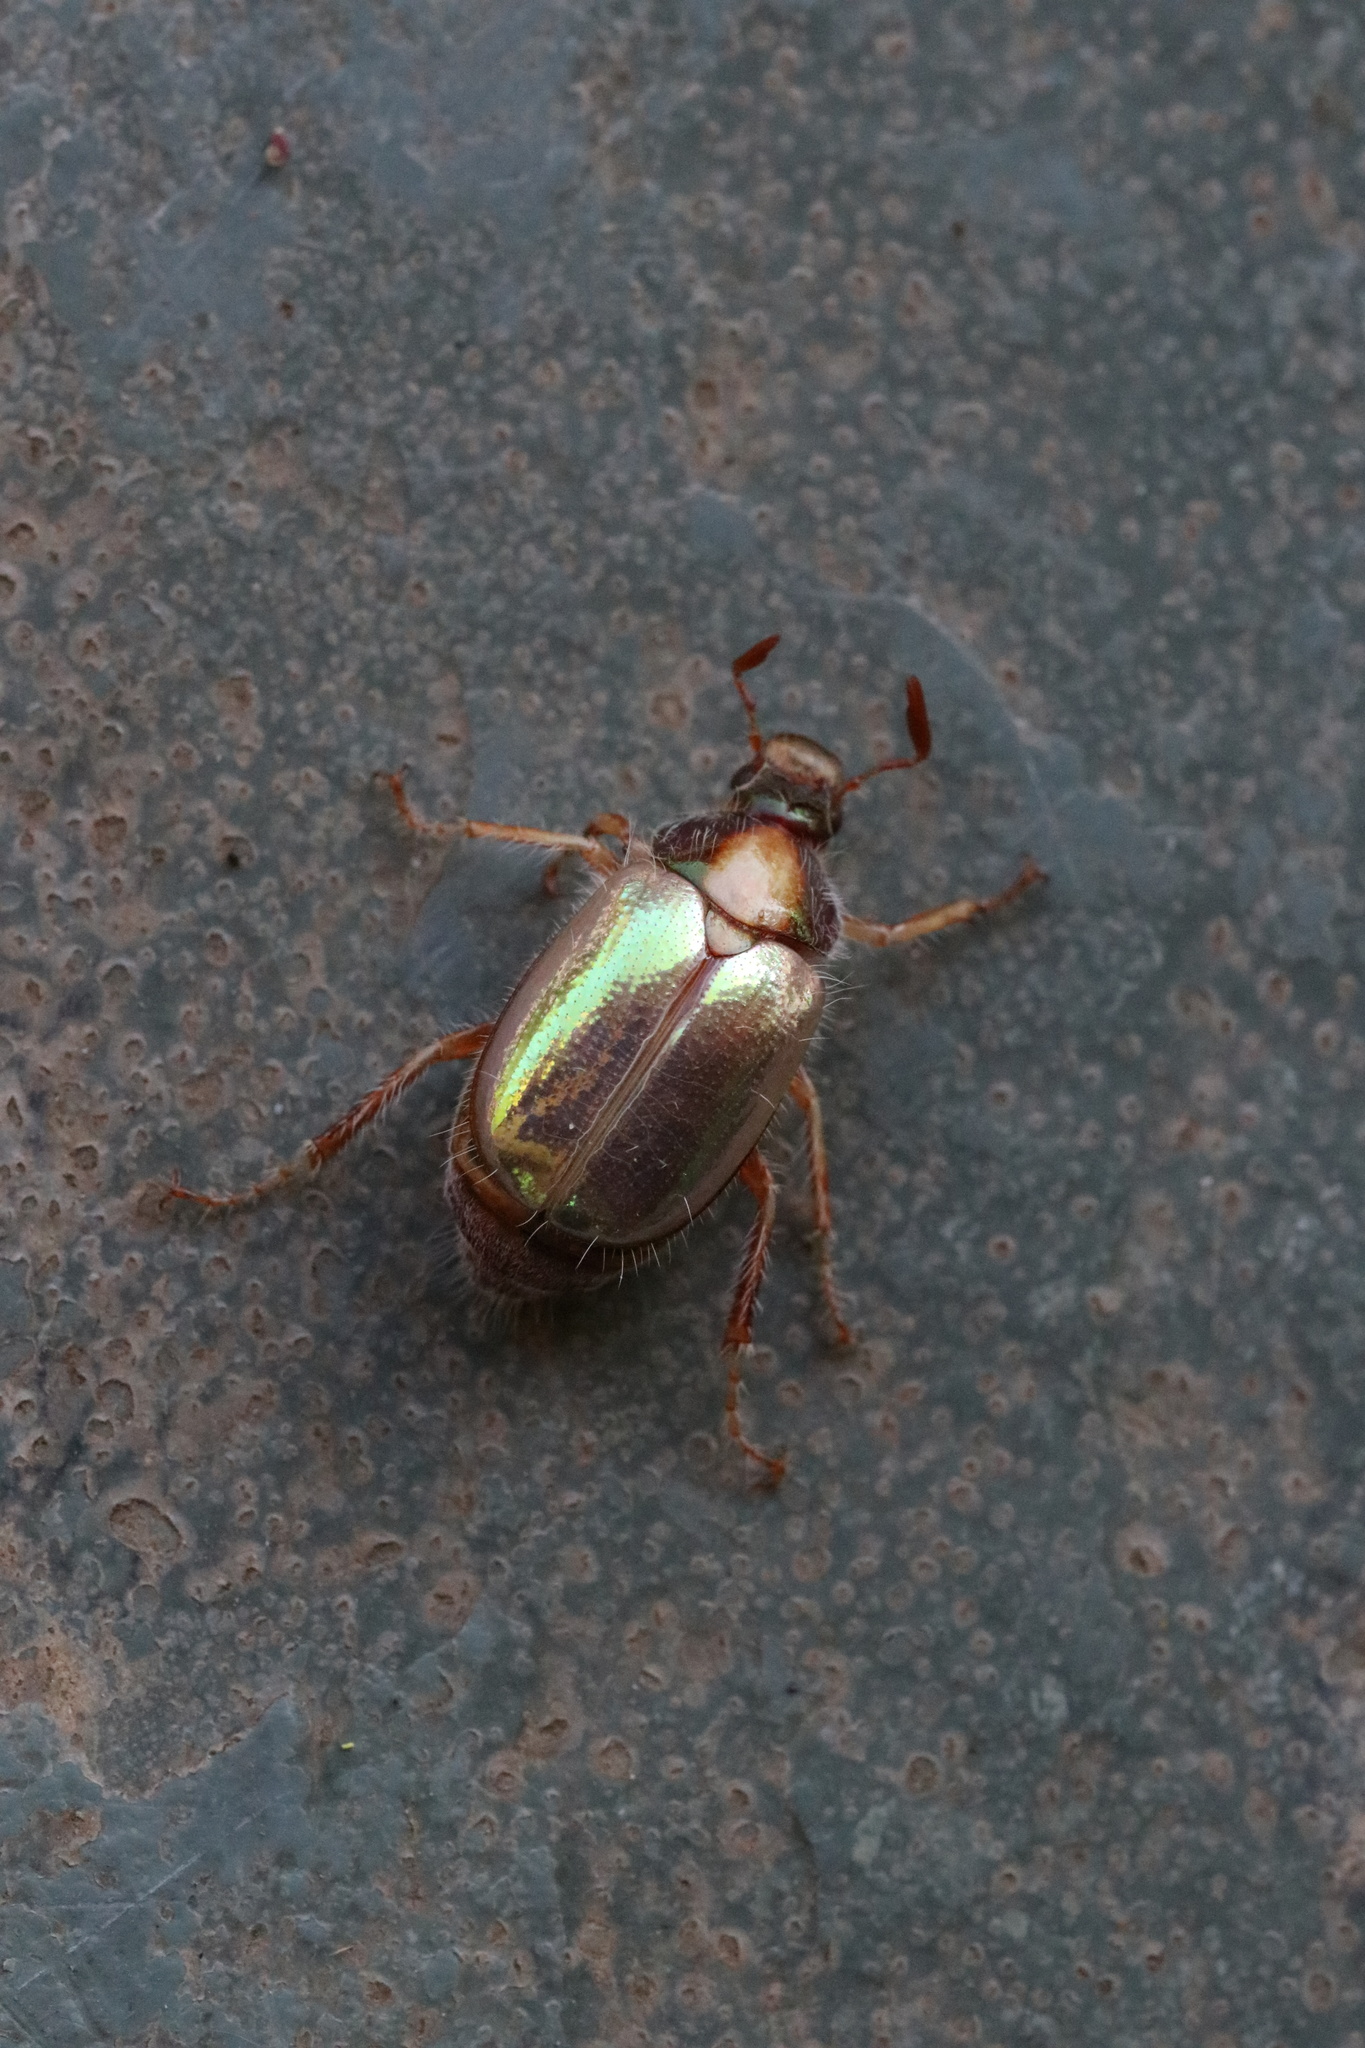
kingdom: Animalia
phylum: Arthropoda
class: Insecta
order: Coleoptera
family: Scarabaeidae
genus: Phytholaema
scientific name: Phytholaema mutabilis
